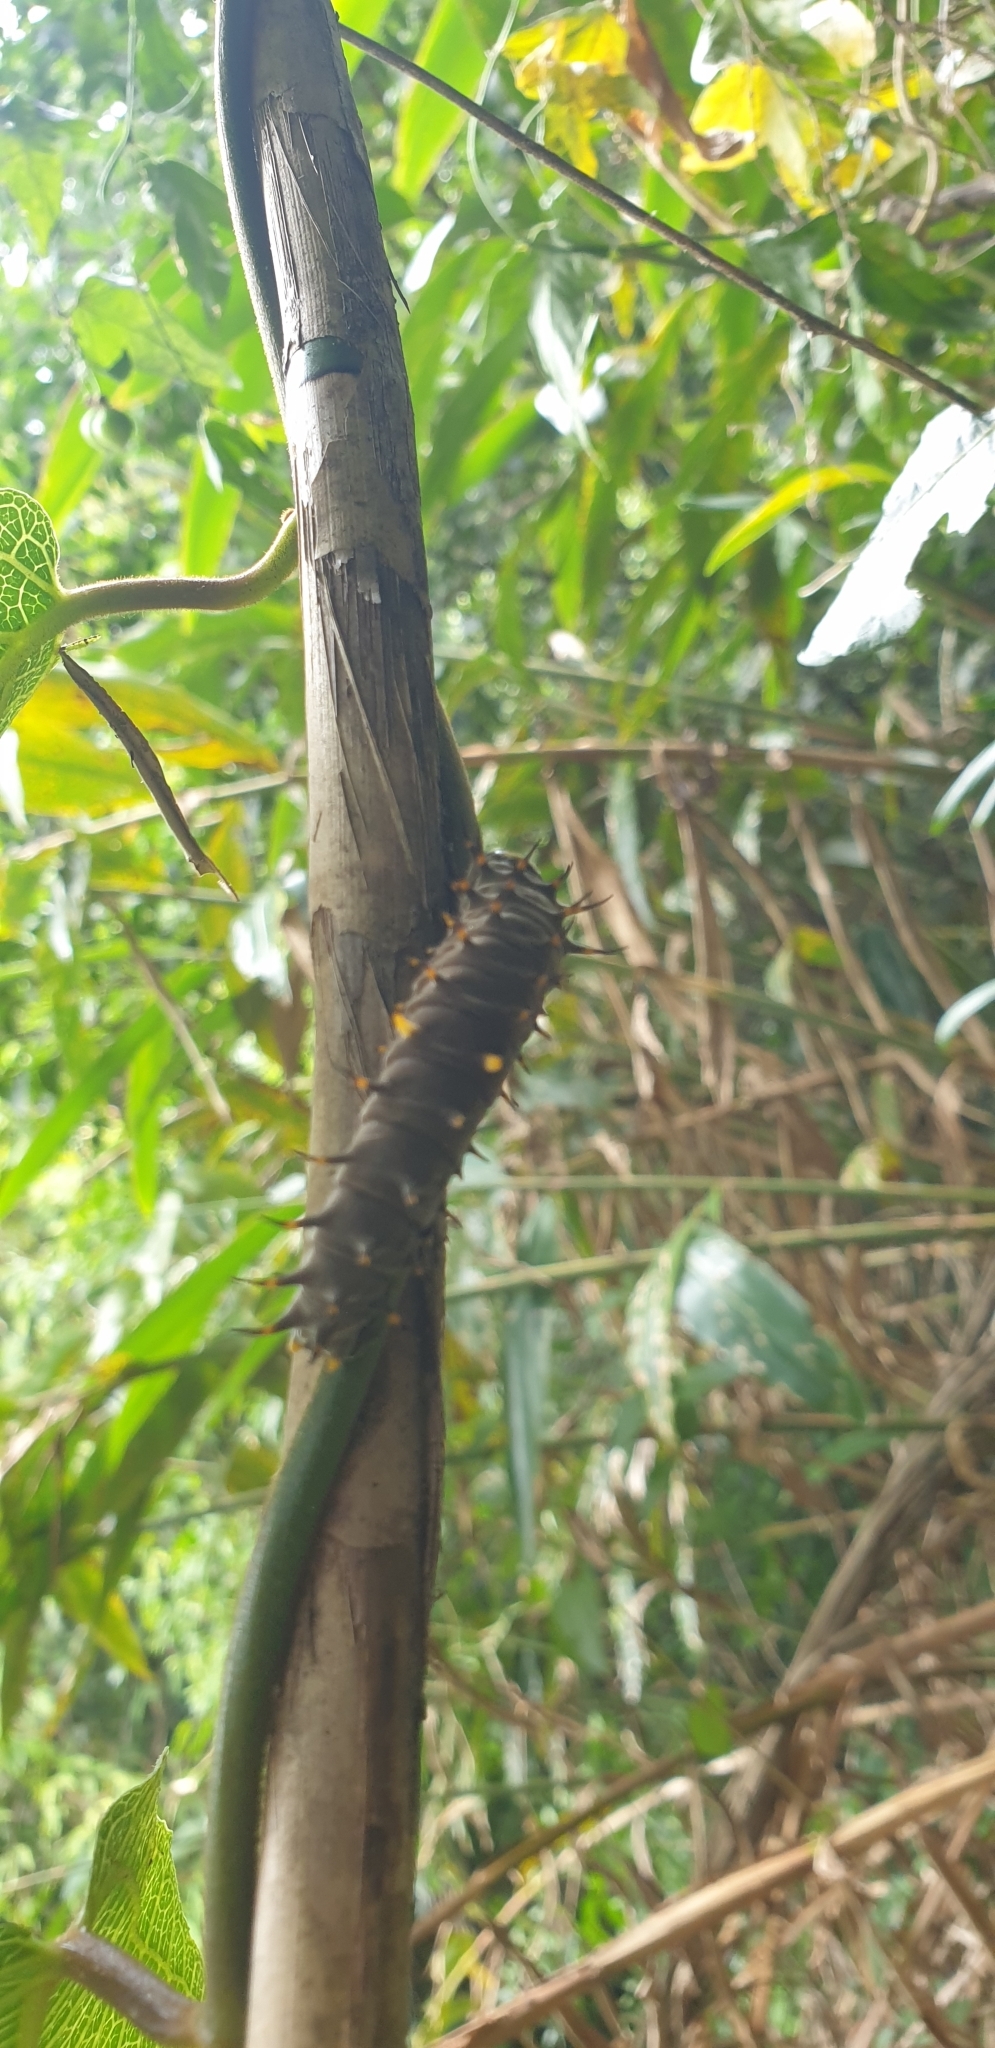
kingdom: Animalia
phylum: Arthropoda
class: Insecta
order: Lepidoptera
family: Papilionidae
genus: Ornithoptera
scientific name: Ornithoptera richmondia
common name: Richmond birdwing
